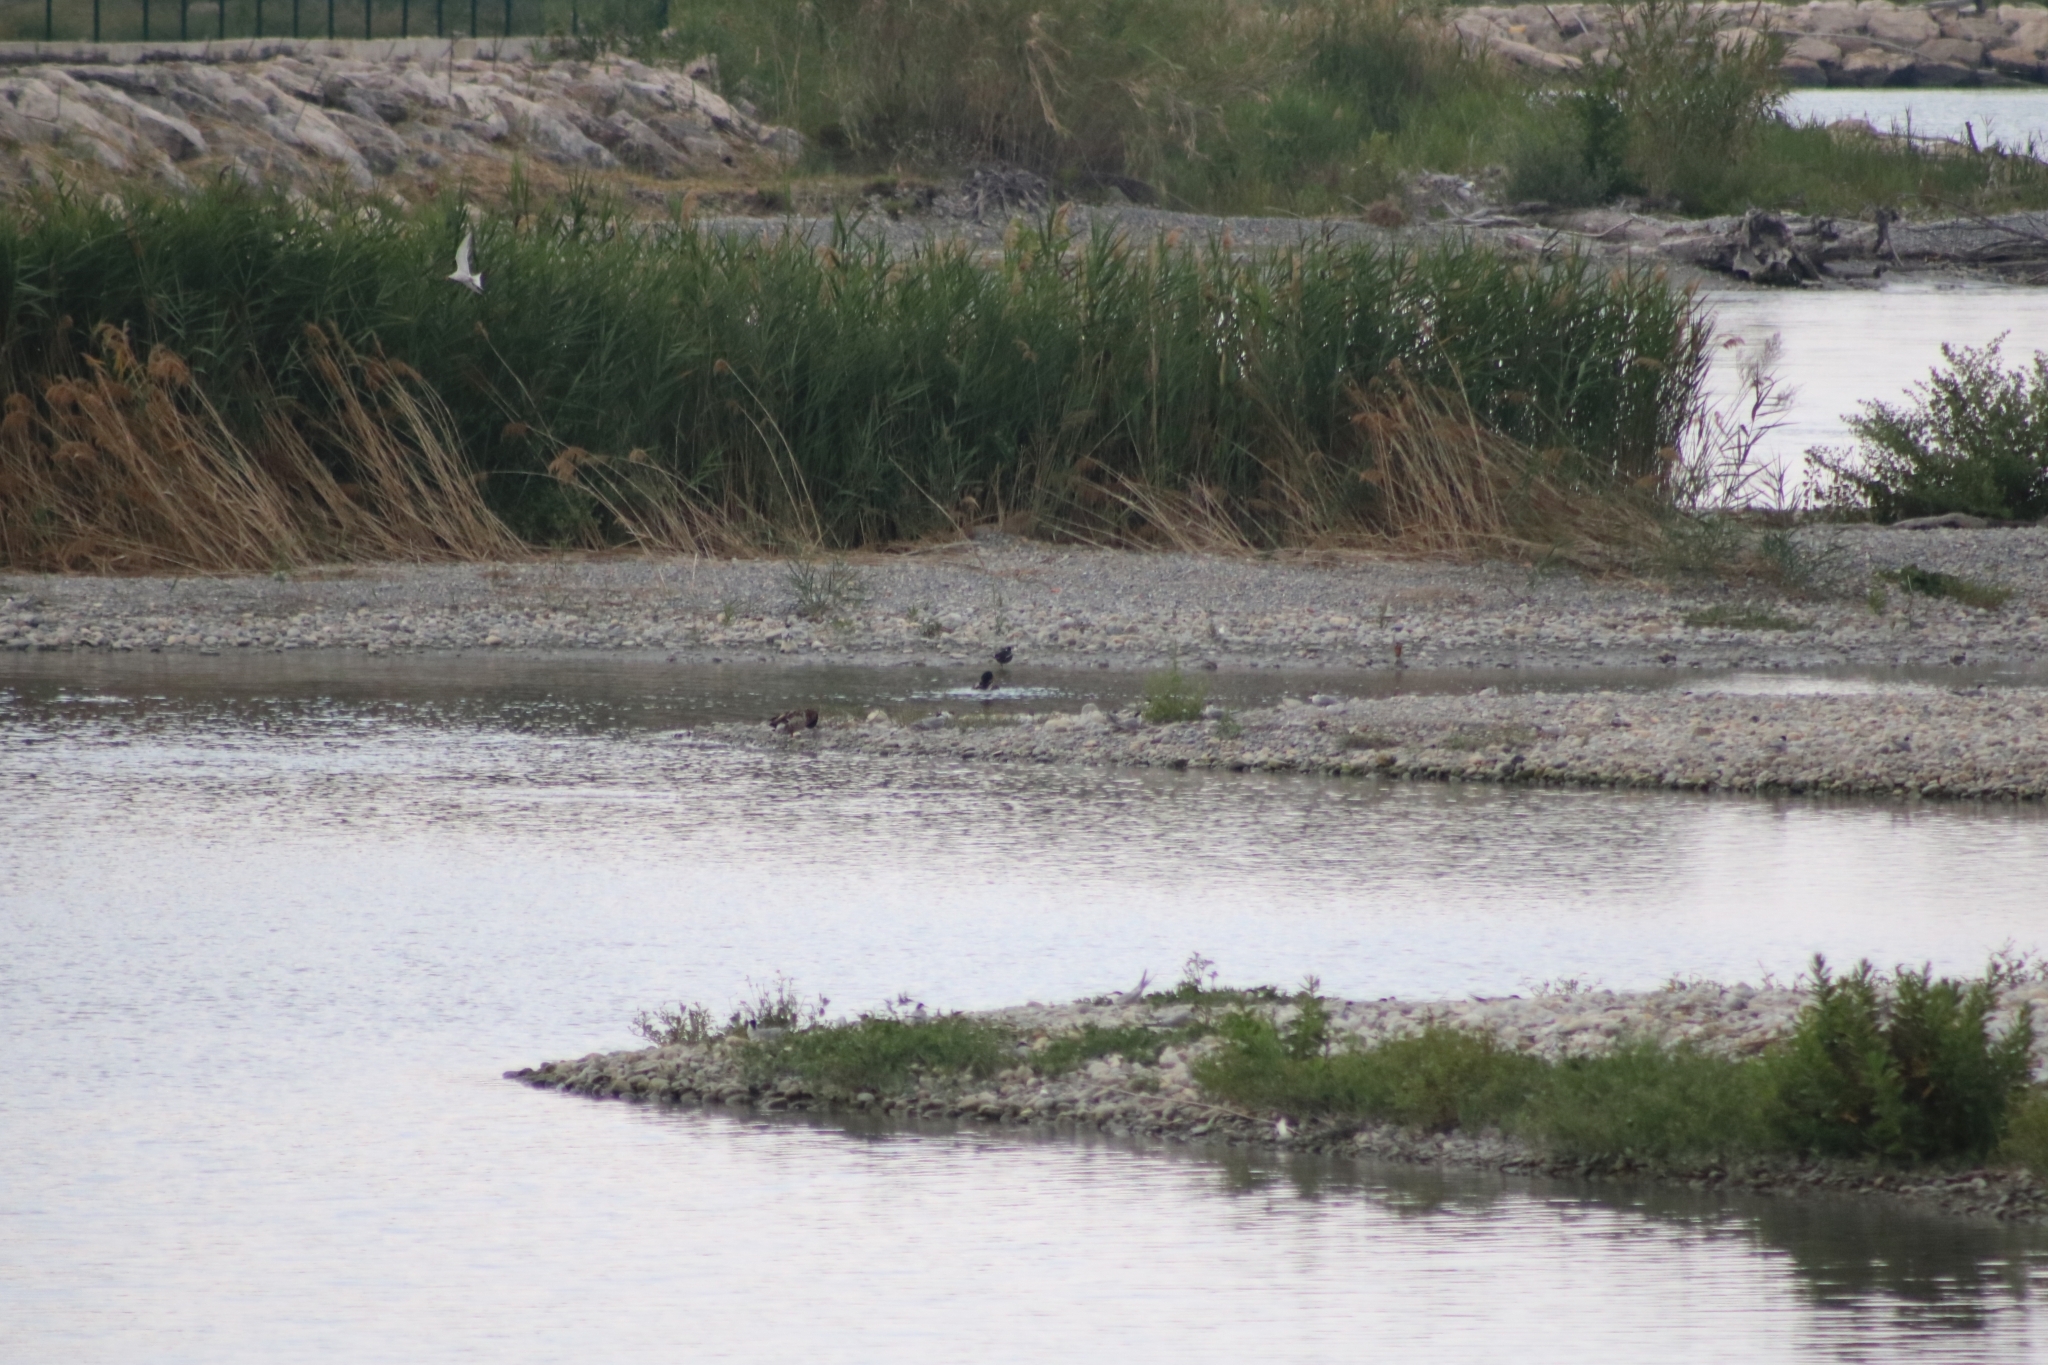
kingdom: Animalia
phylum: Chordata
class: Aves
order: Gruiformes
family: Rallidae
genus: Gallinula
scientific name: Gallinula chloropus
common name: Common moorhen
